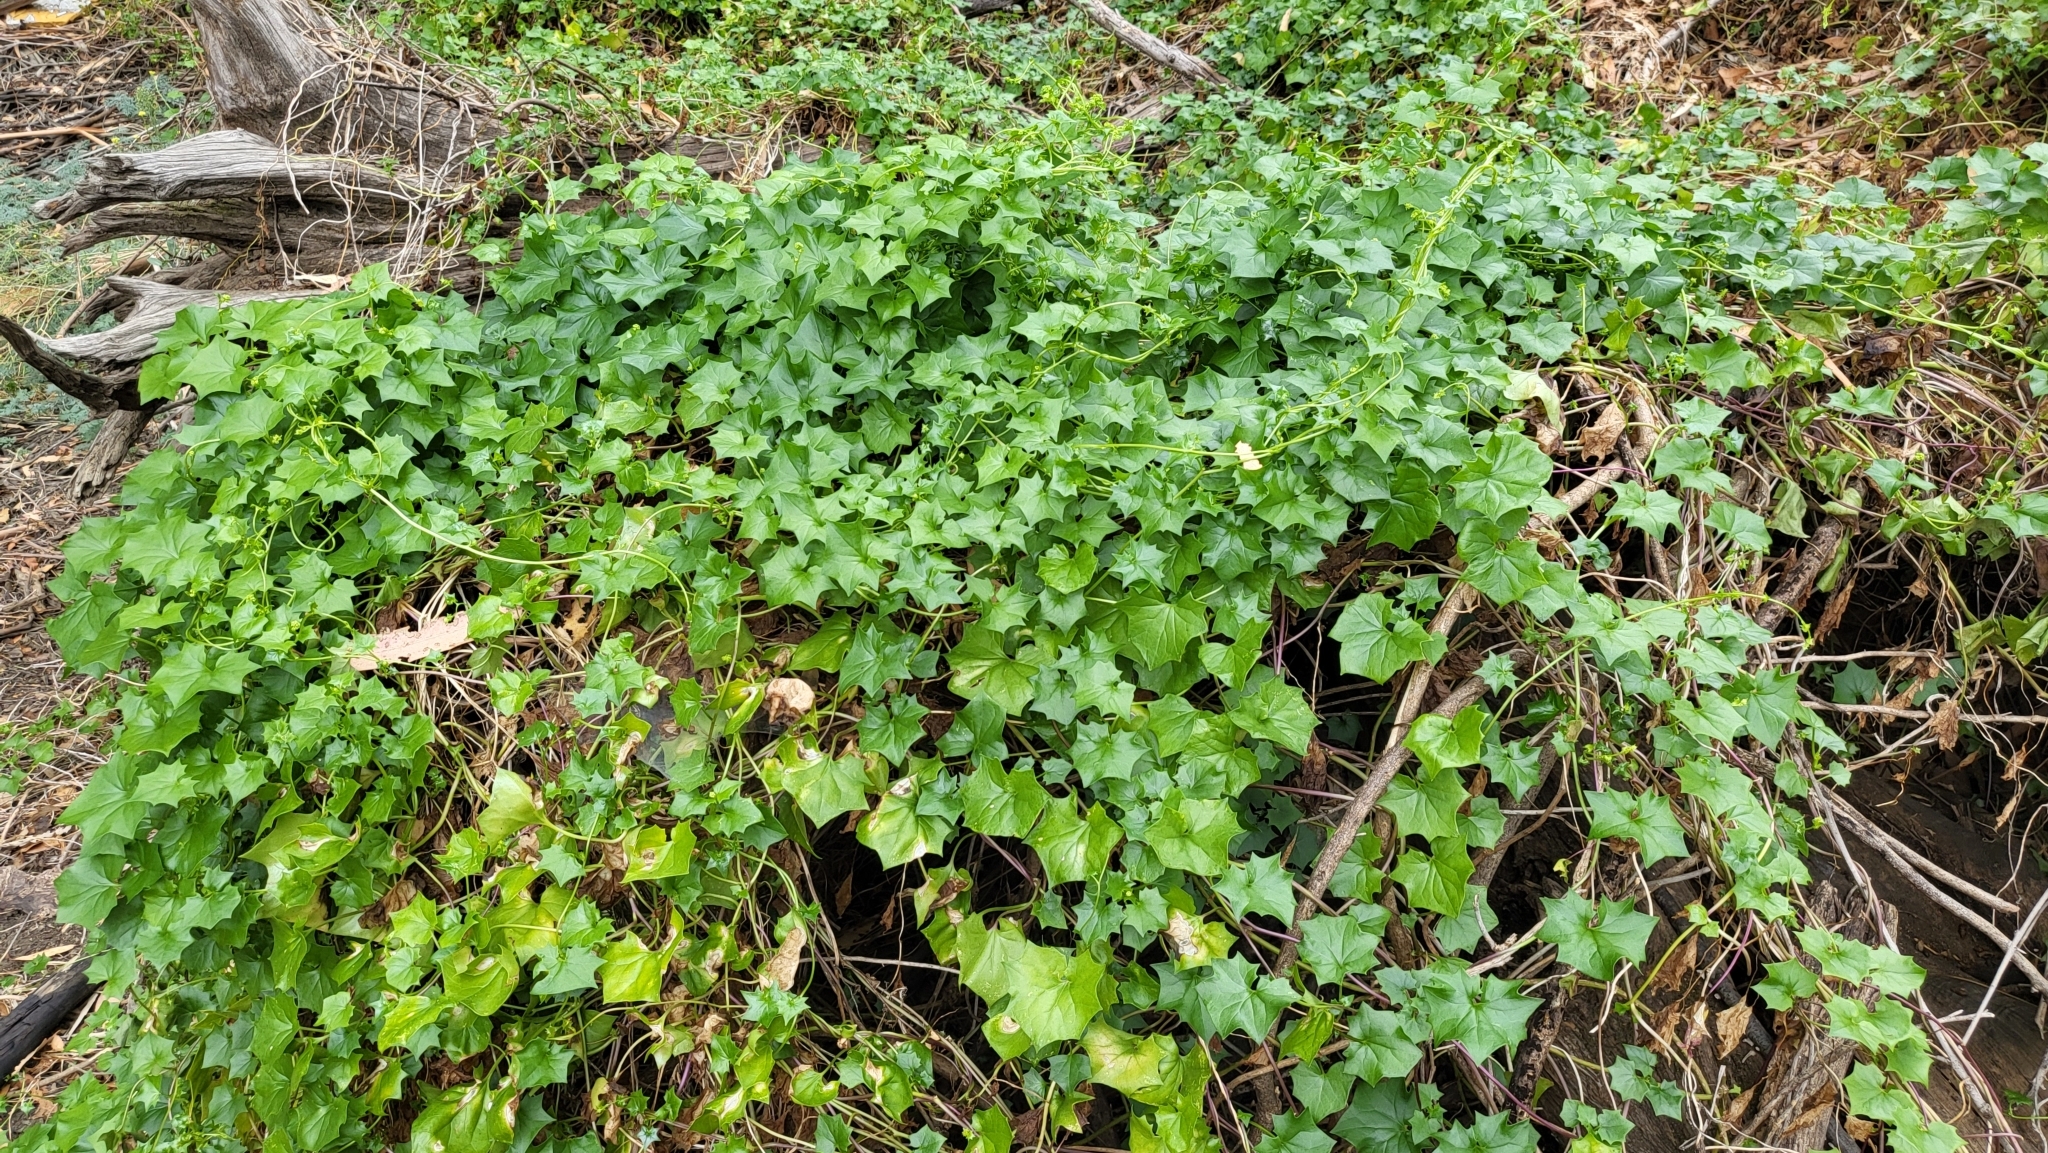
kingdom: Plantae
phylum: Tracheophyta
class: Magnoliopsida
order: Asterales
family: Asteraceae
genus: Delairea
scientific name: Delairea odorata
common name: Cape-ivy
